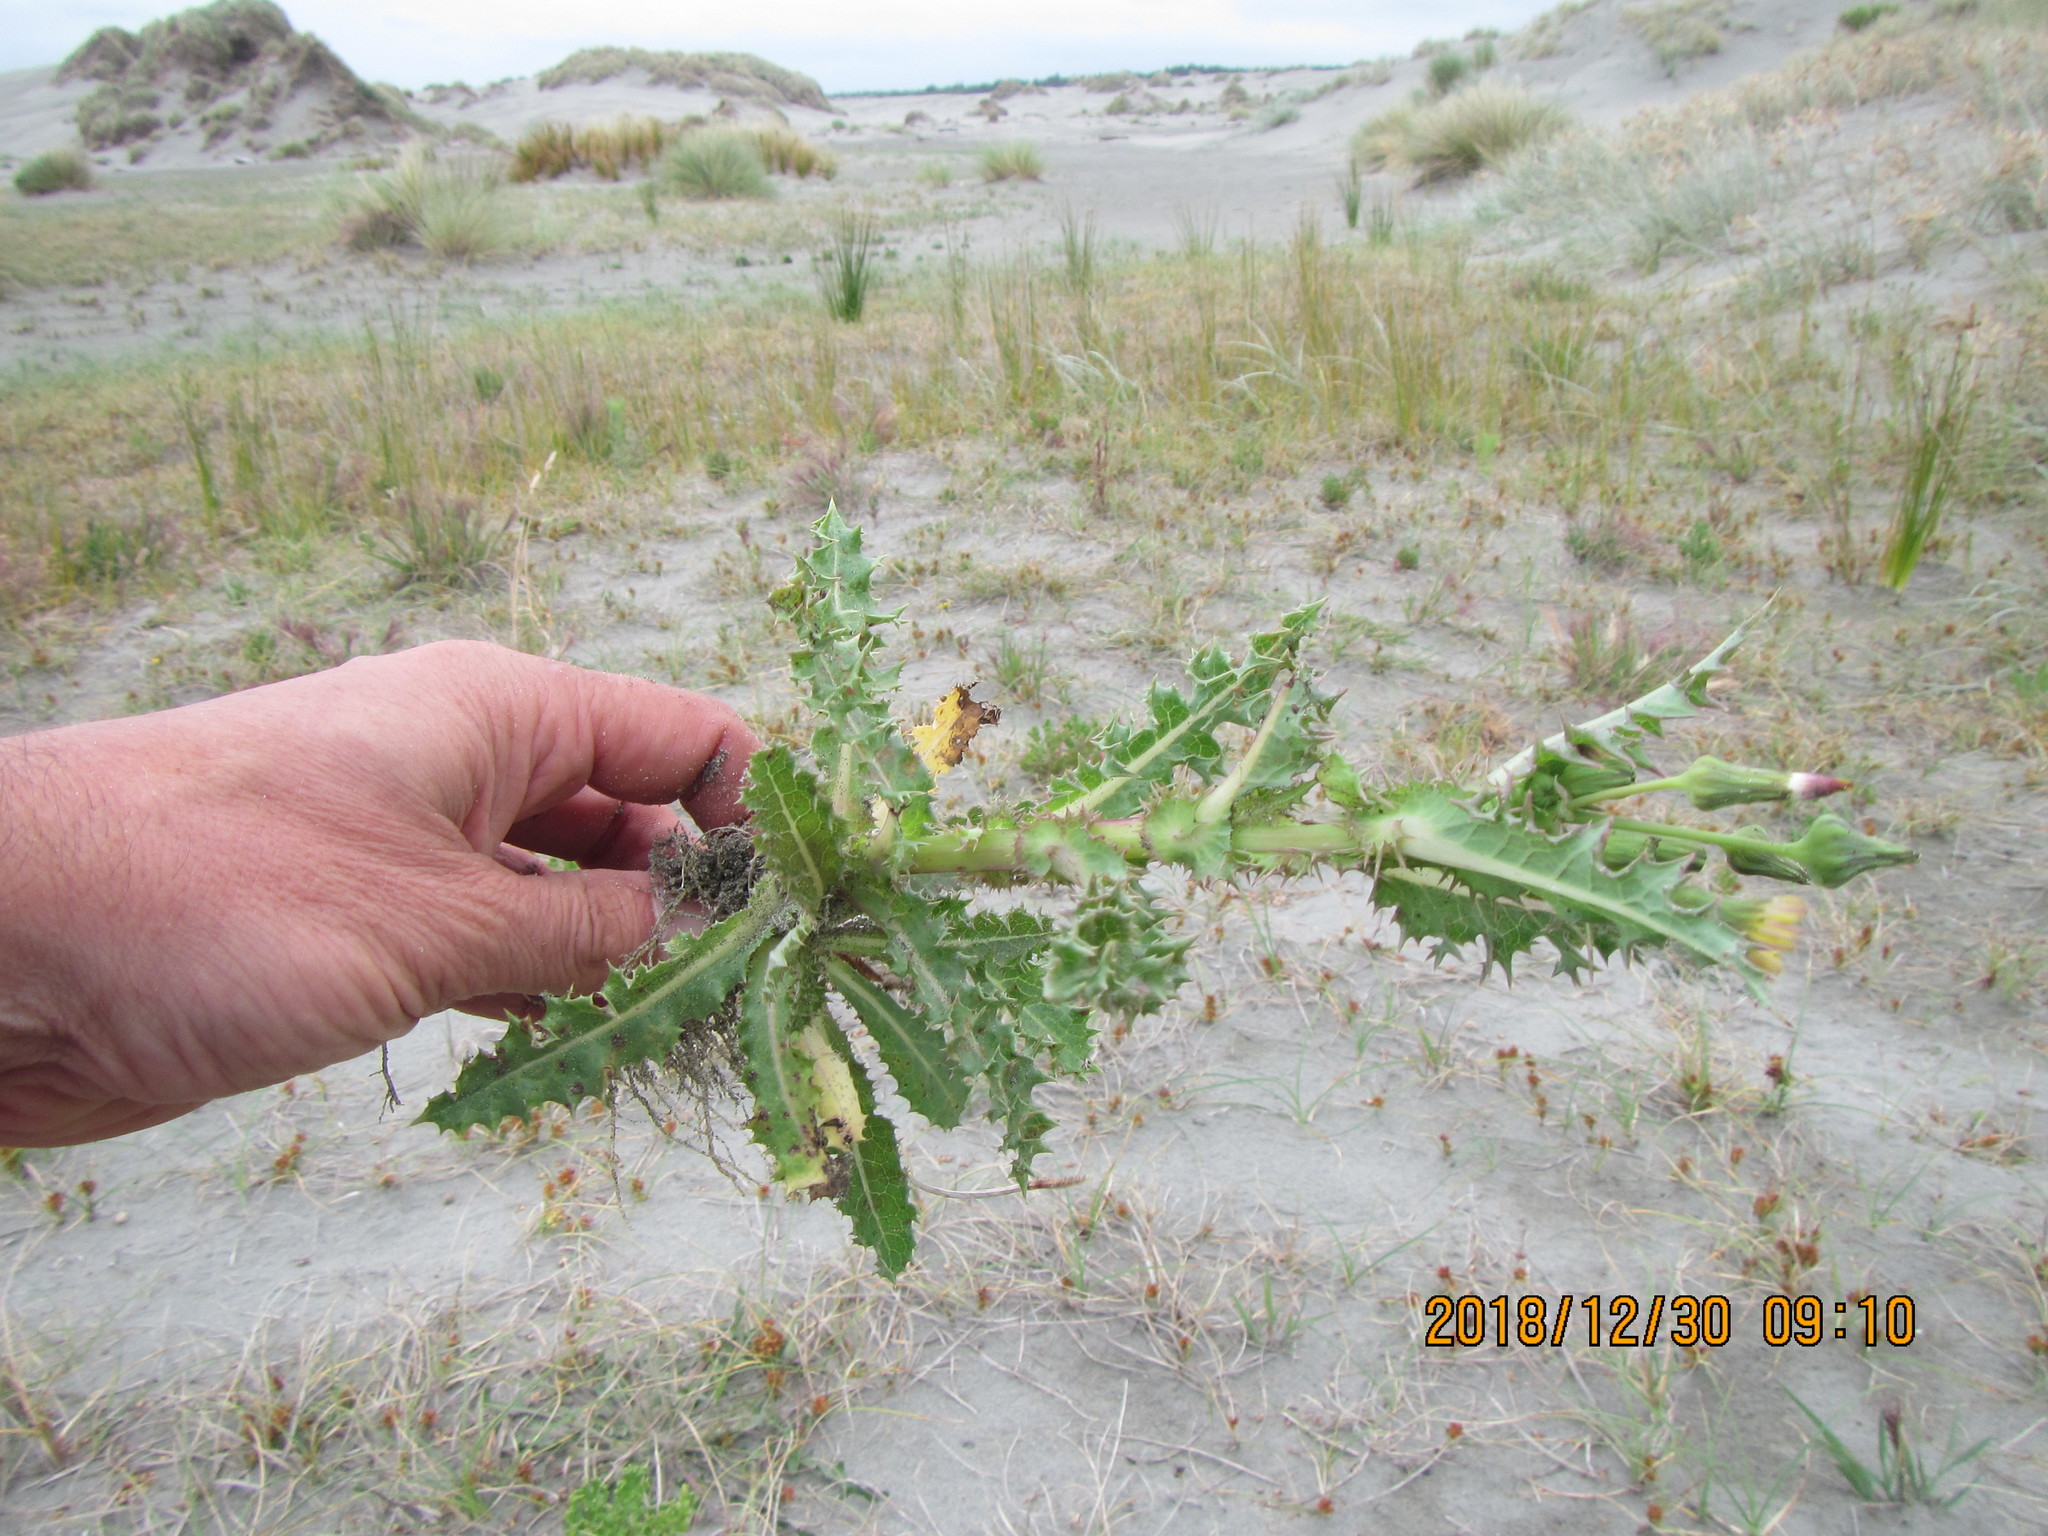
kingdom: Plantae
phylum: Tracheophyta
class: Magnoliopsida
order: Asterales
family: Asteraceae
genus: Sonchus
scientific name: Sonchus asper
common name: Prickly sow-thistle
